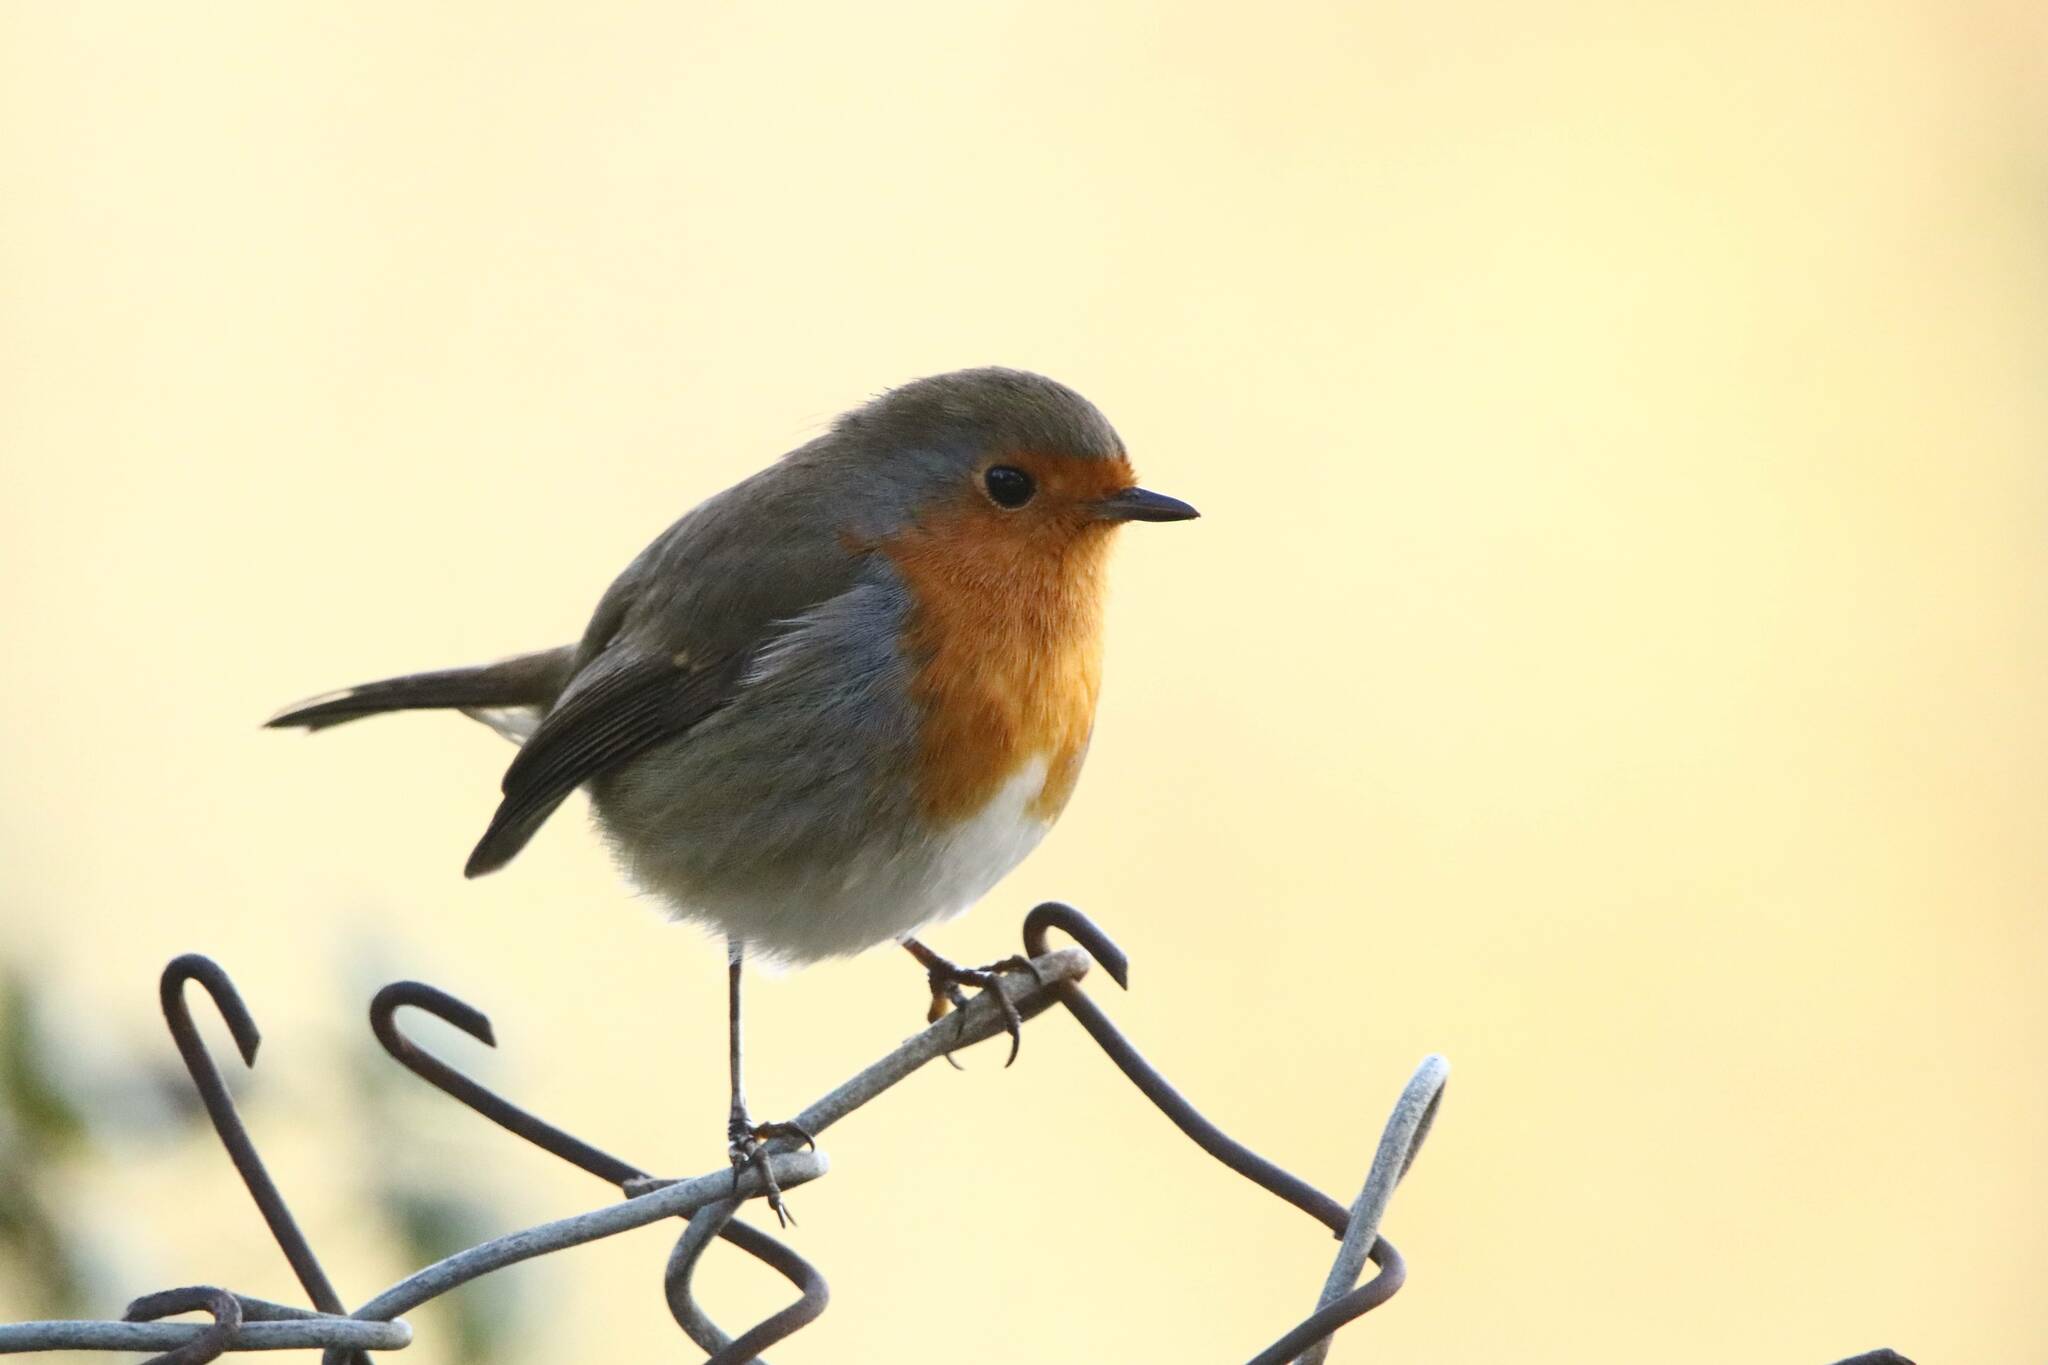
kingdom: Animalia
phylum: Chordata
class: Aves
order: Passeriformes
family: Muscicapidae
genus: Erithacus
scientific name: Erithacus rubecula
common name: European robin
